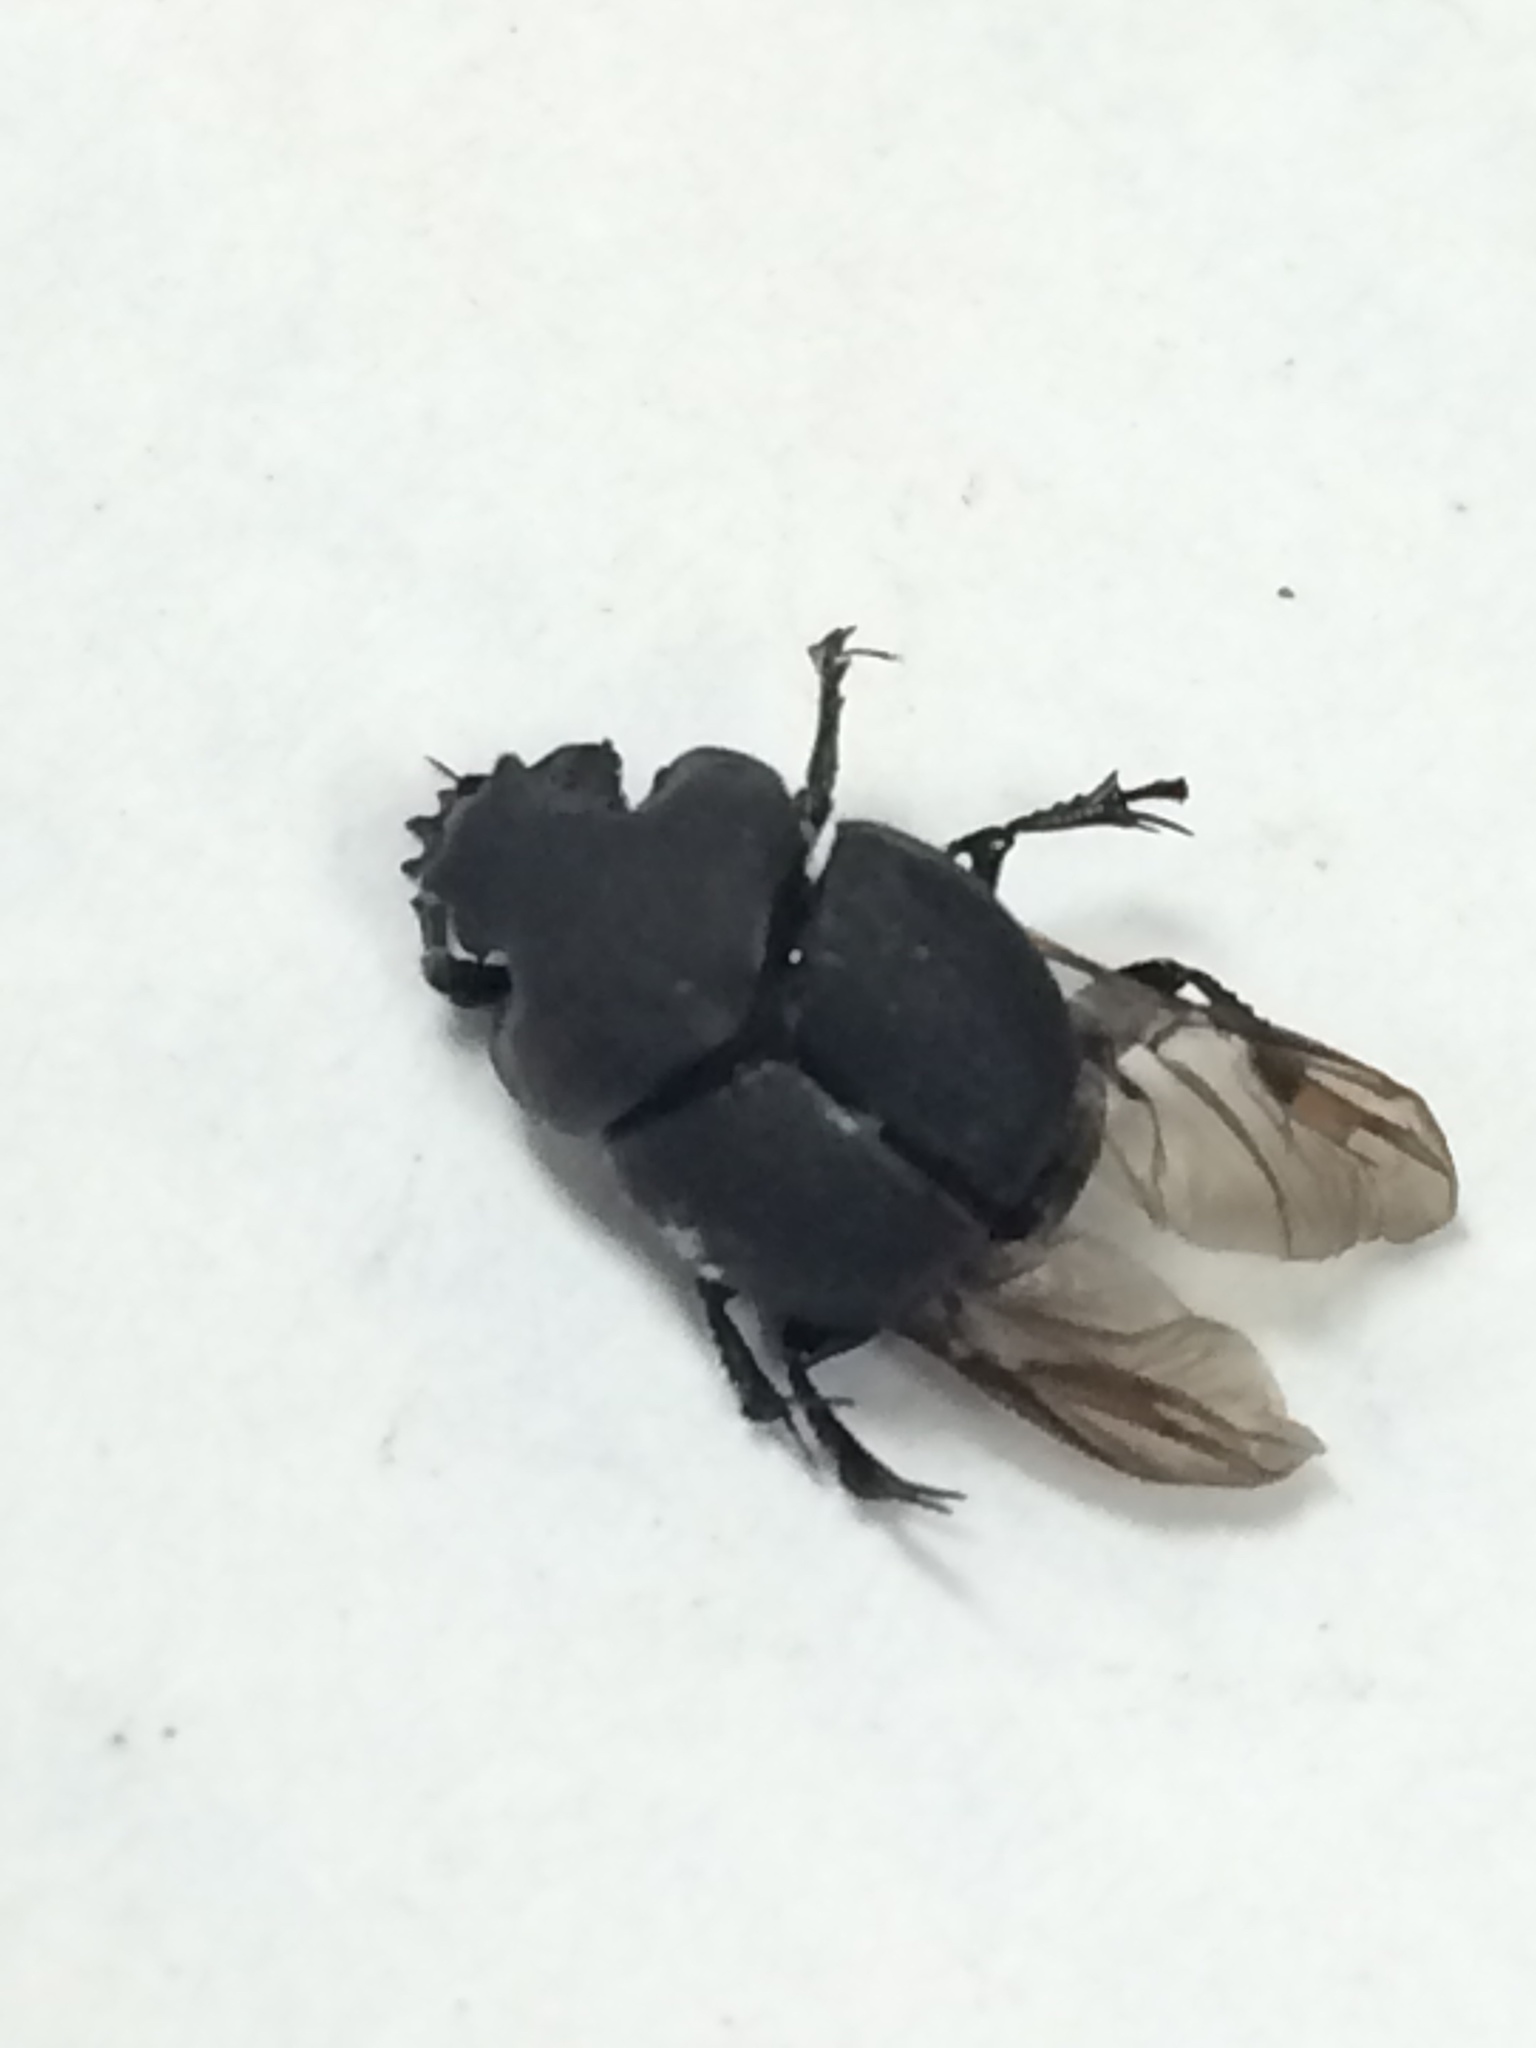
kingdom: Animalia
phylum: Arthropoda
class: Insecta
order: Coleoptera
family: Scarabaeidae
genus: Onthophagus
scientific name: Onthophagus hecate
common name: Scooped scarab
